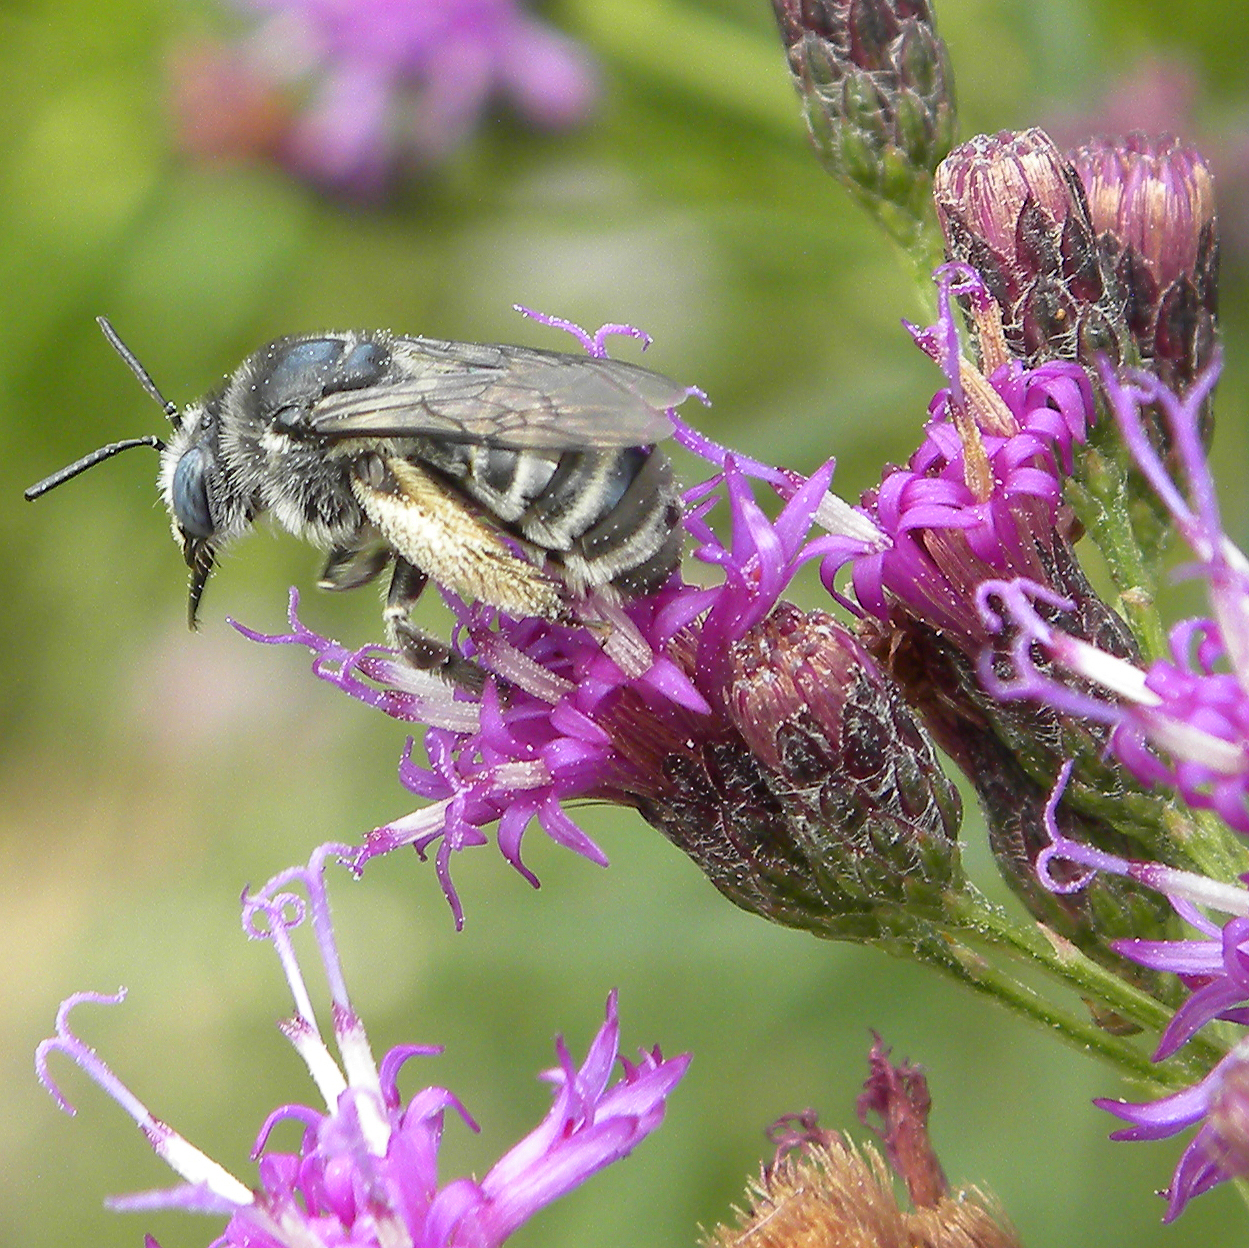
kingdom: Animalia
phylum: Arthropoda
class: Insecta
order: Hymenoptera
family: Apidae
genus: Melissodes
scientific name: Melissodes denticulatus
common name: Denticulate long-horned bee
